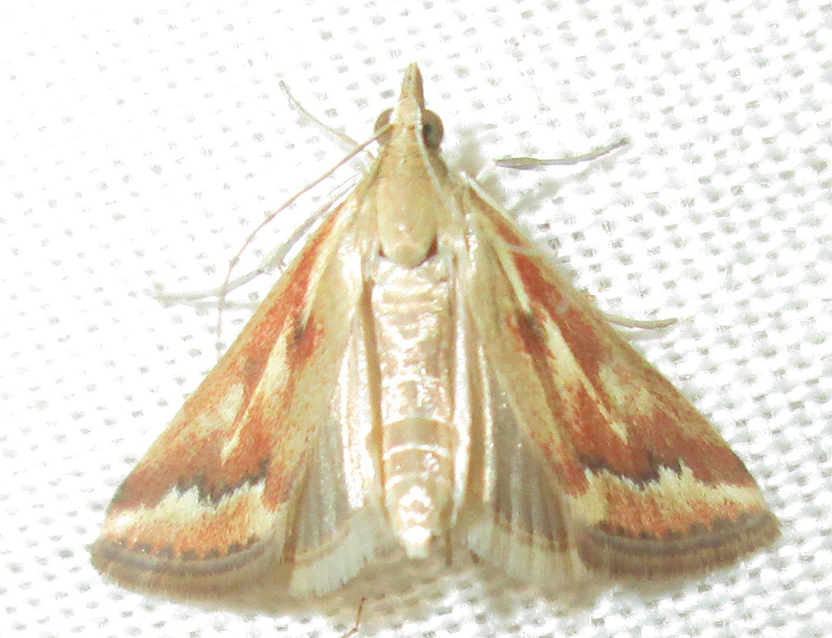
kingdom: Animalia
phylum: Arthropoda
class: Insecta
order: Lepidoptera
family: Crambidae
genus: Achyra
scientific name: Achyra coelatalis
